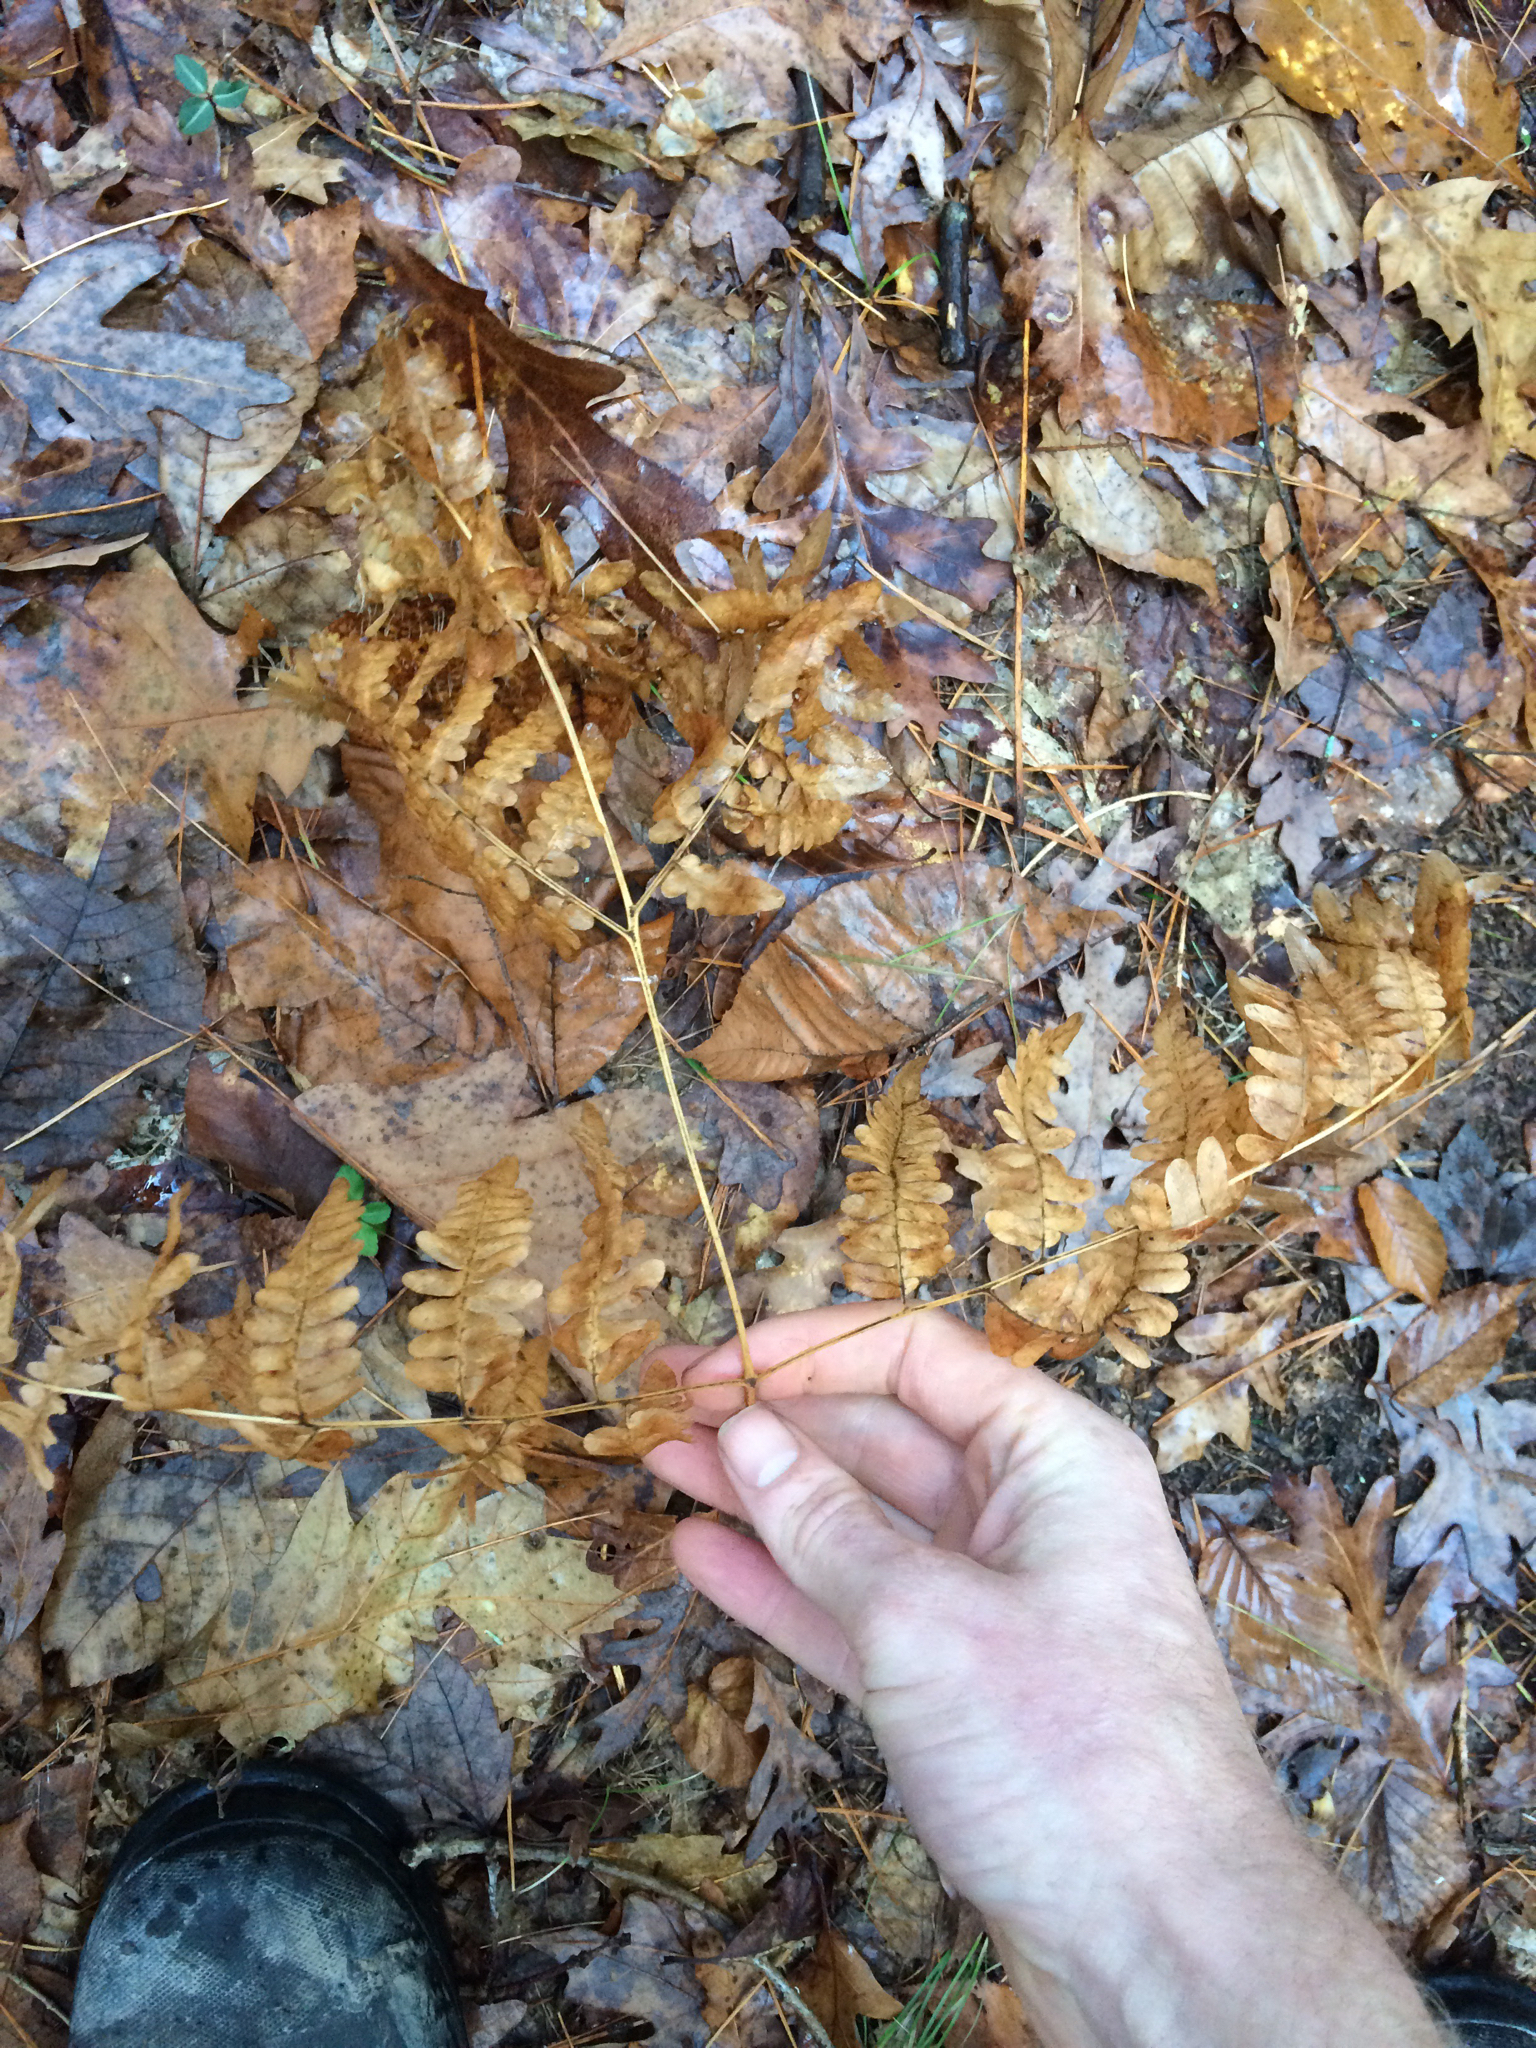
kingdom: Plantae
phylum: Tracheophyta
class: Polypodiopsida
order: Polypodiales
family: Dennstaedtiaceae
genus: Pteridium
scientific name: Pteridium aquilinum
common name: Bracken
